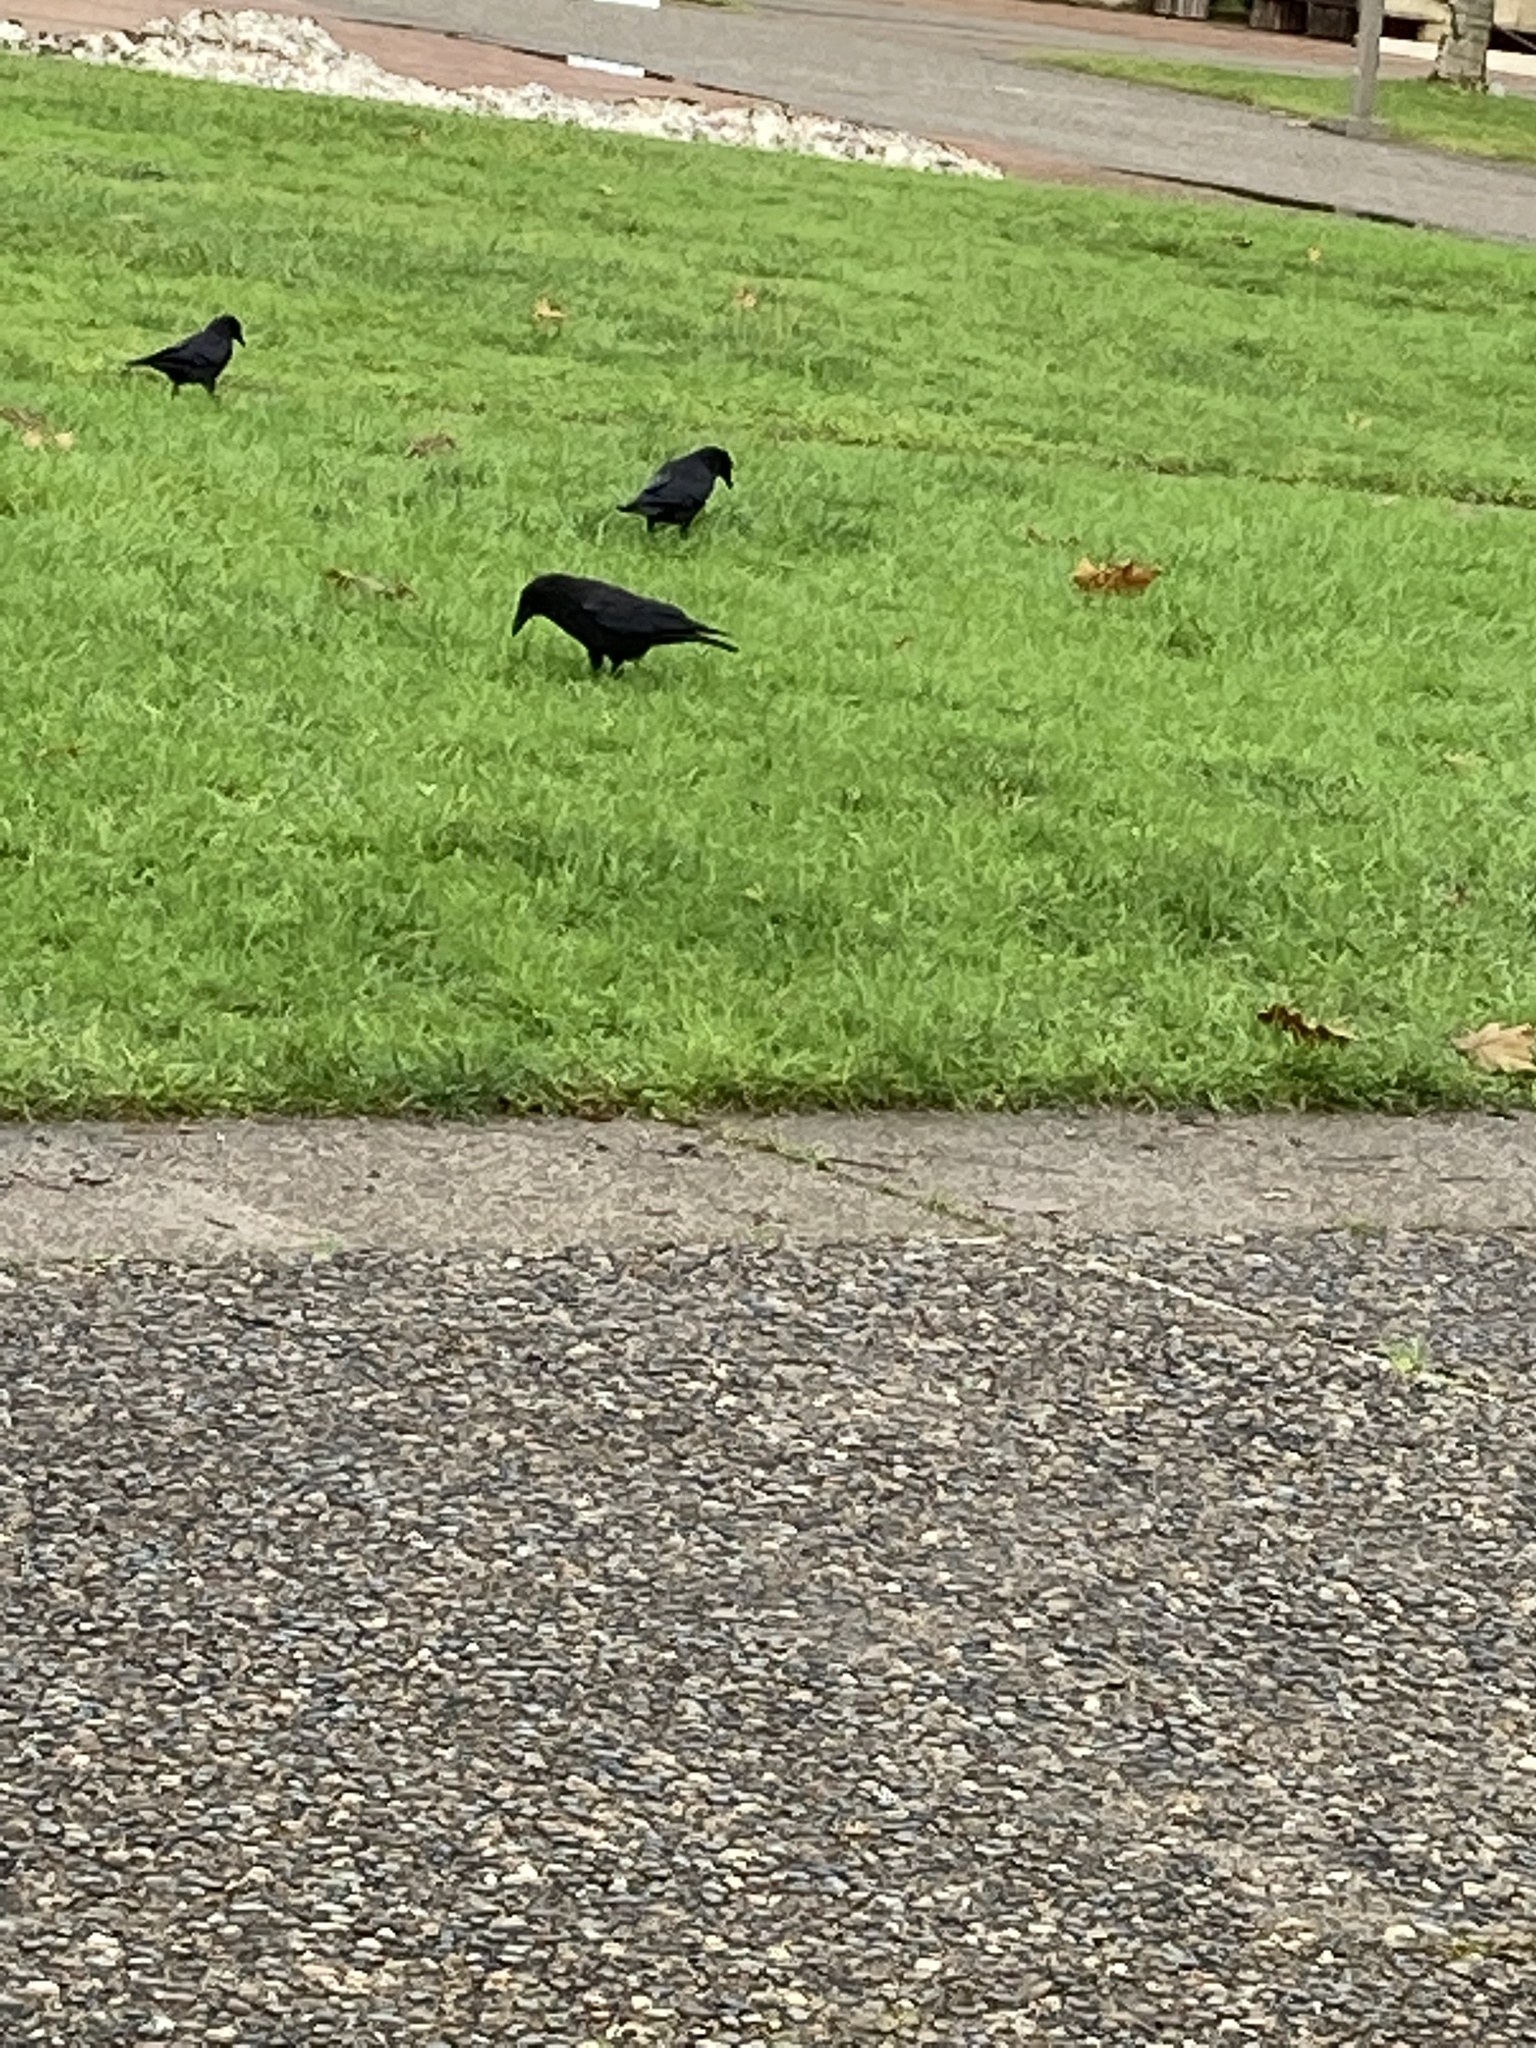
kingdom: Animalia
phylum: Chordata
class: Aves
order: Passeriformes
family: Corvidae
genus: Corvus
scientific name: Corvus brachyrhynchos
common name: American crow
